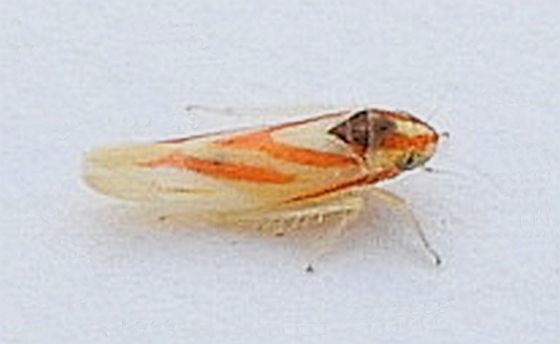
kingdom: Animalia
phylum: Arthropoda
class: Insecta
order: Hemiptera
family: Cicadellidae
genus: Erythridula
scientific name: Erythridula noeva
